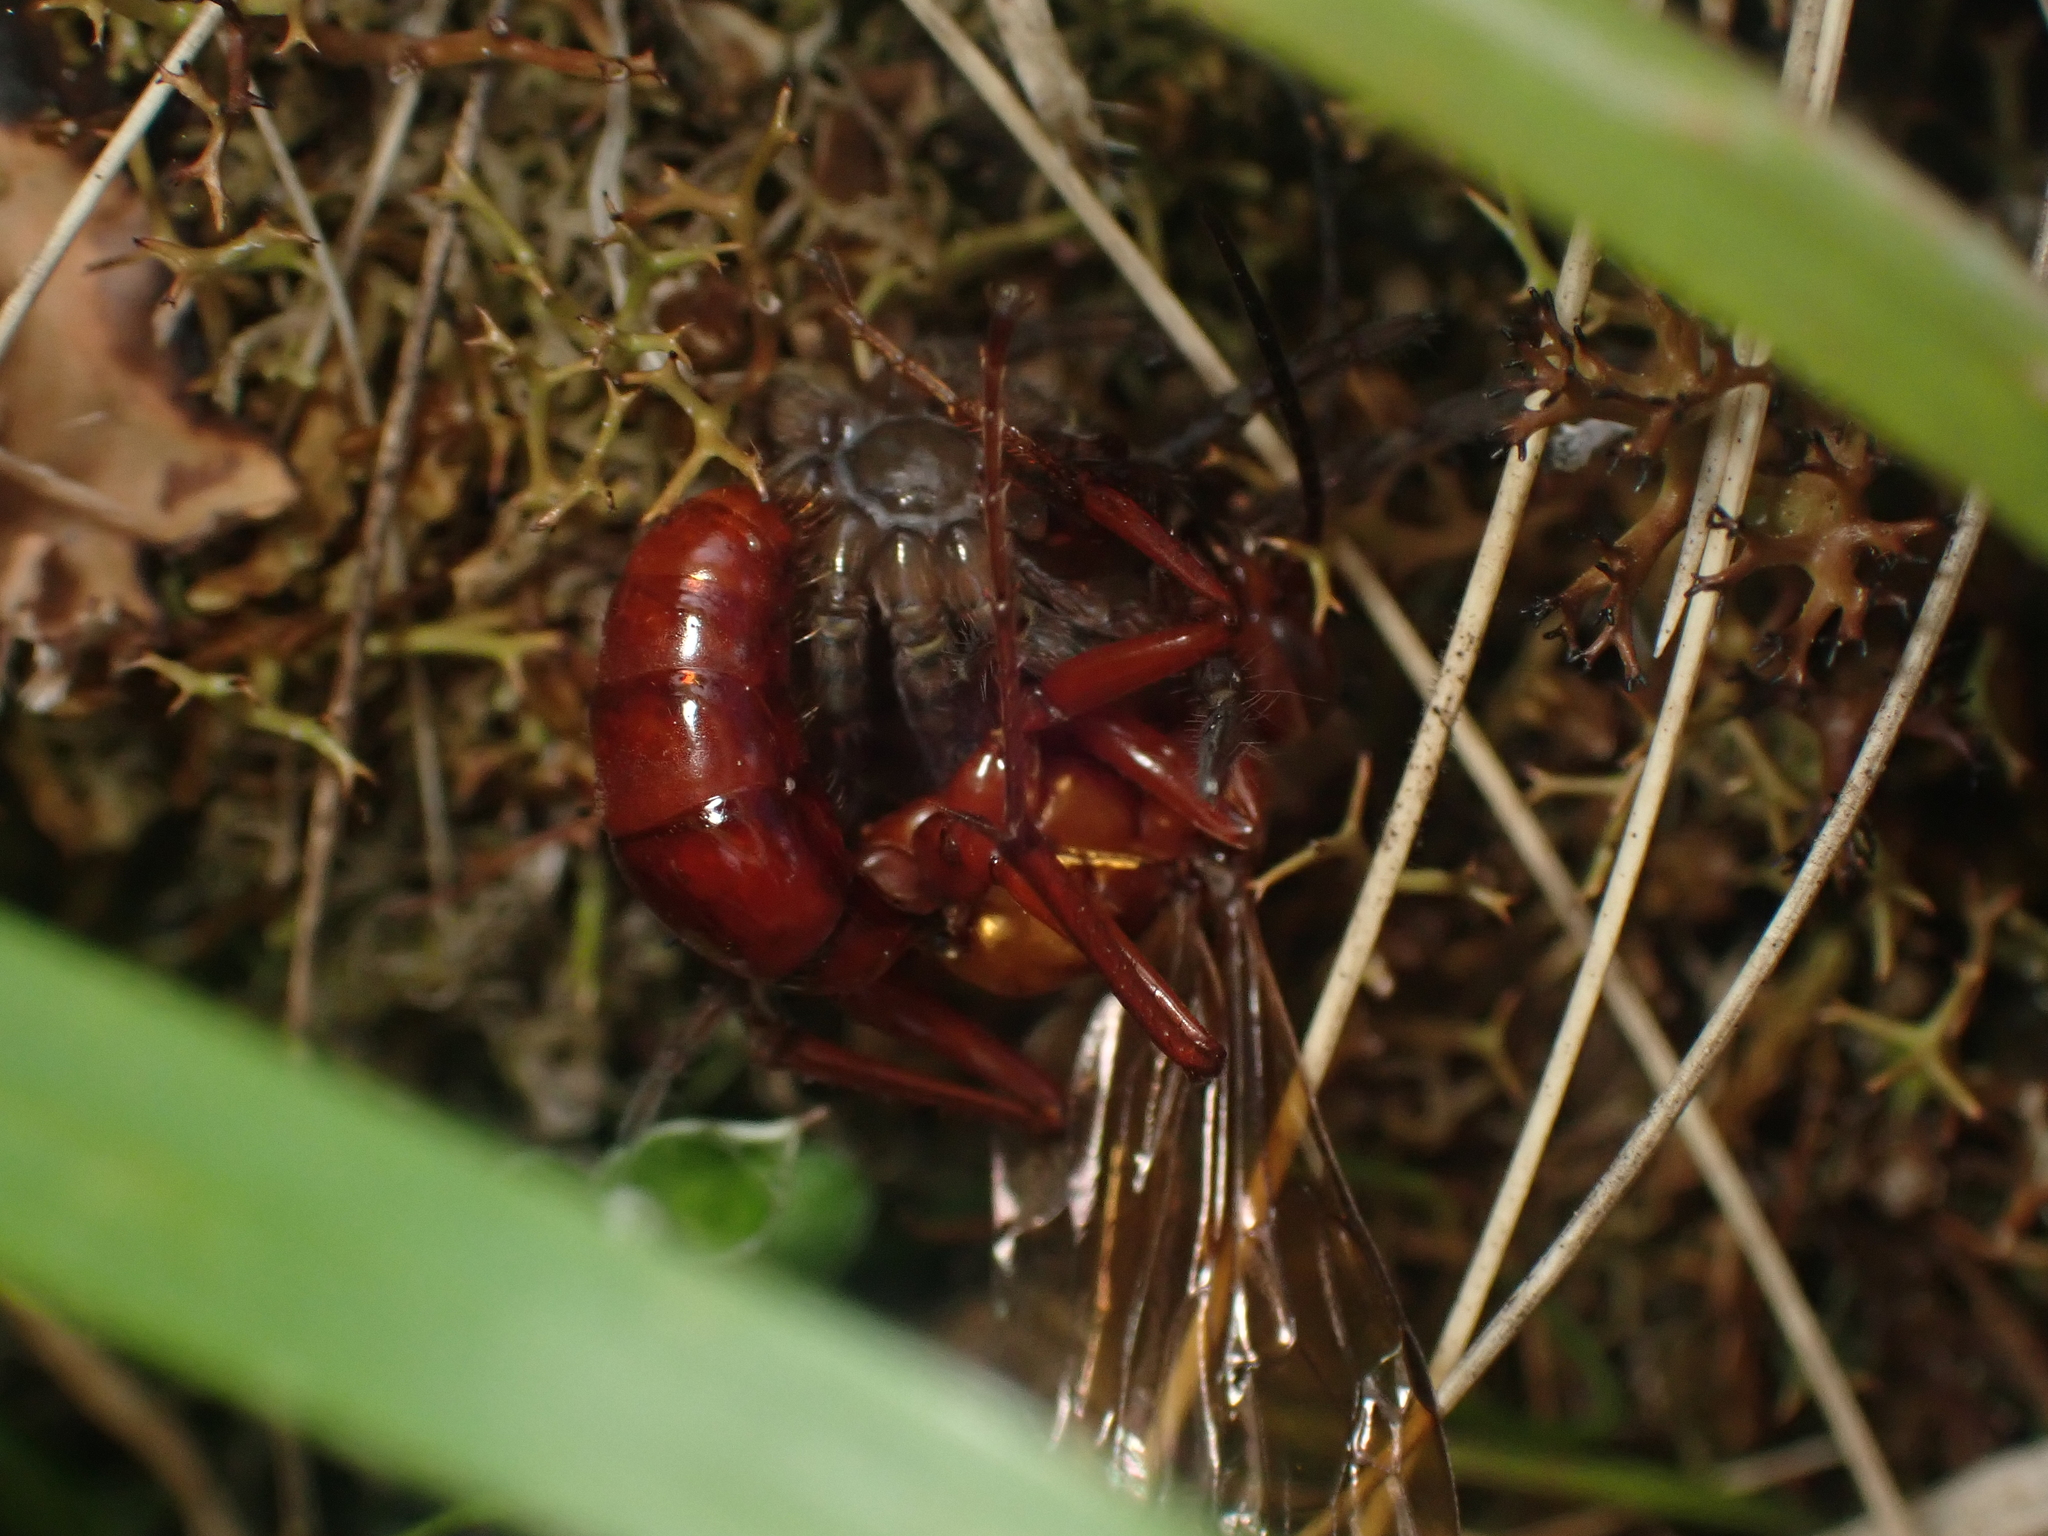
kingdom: Animalia
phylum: Arthropoda
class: Insecta
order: Hymenoptera
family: Pompilidae
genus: Sphictostethus
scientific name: Sphictostethus nitidus
